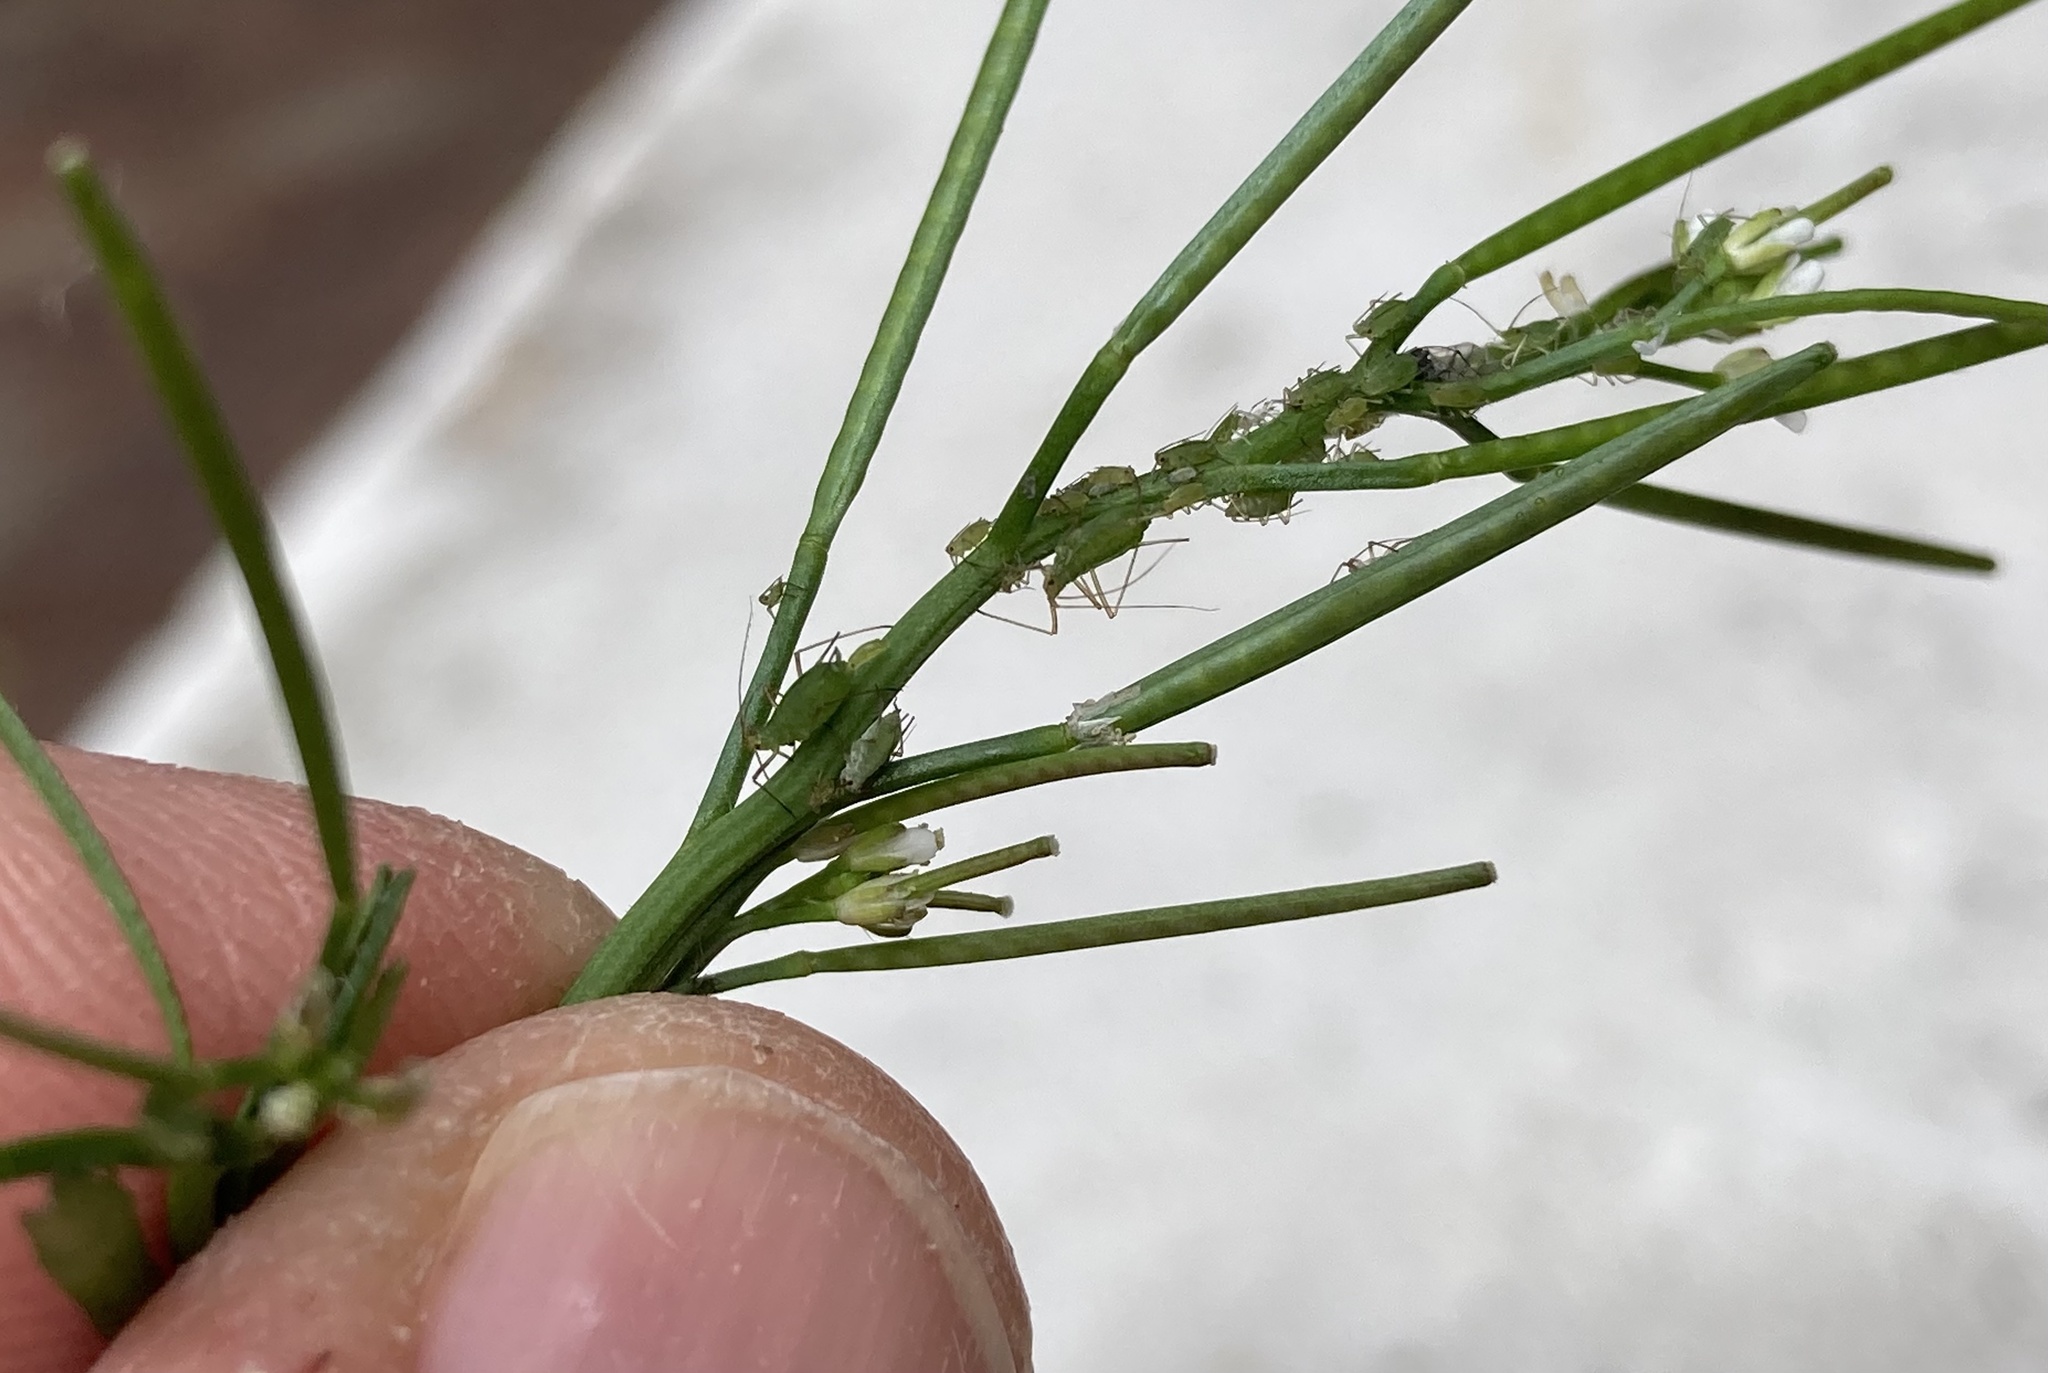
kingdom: Animalia
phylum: Arthropoda
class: Insecta
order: Hemiptera
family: Aphididae
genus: Macrosiphum
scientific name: Macrosiphum euphorbiae
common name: Potato aphid
